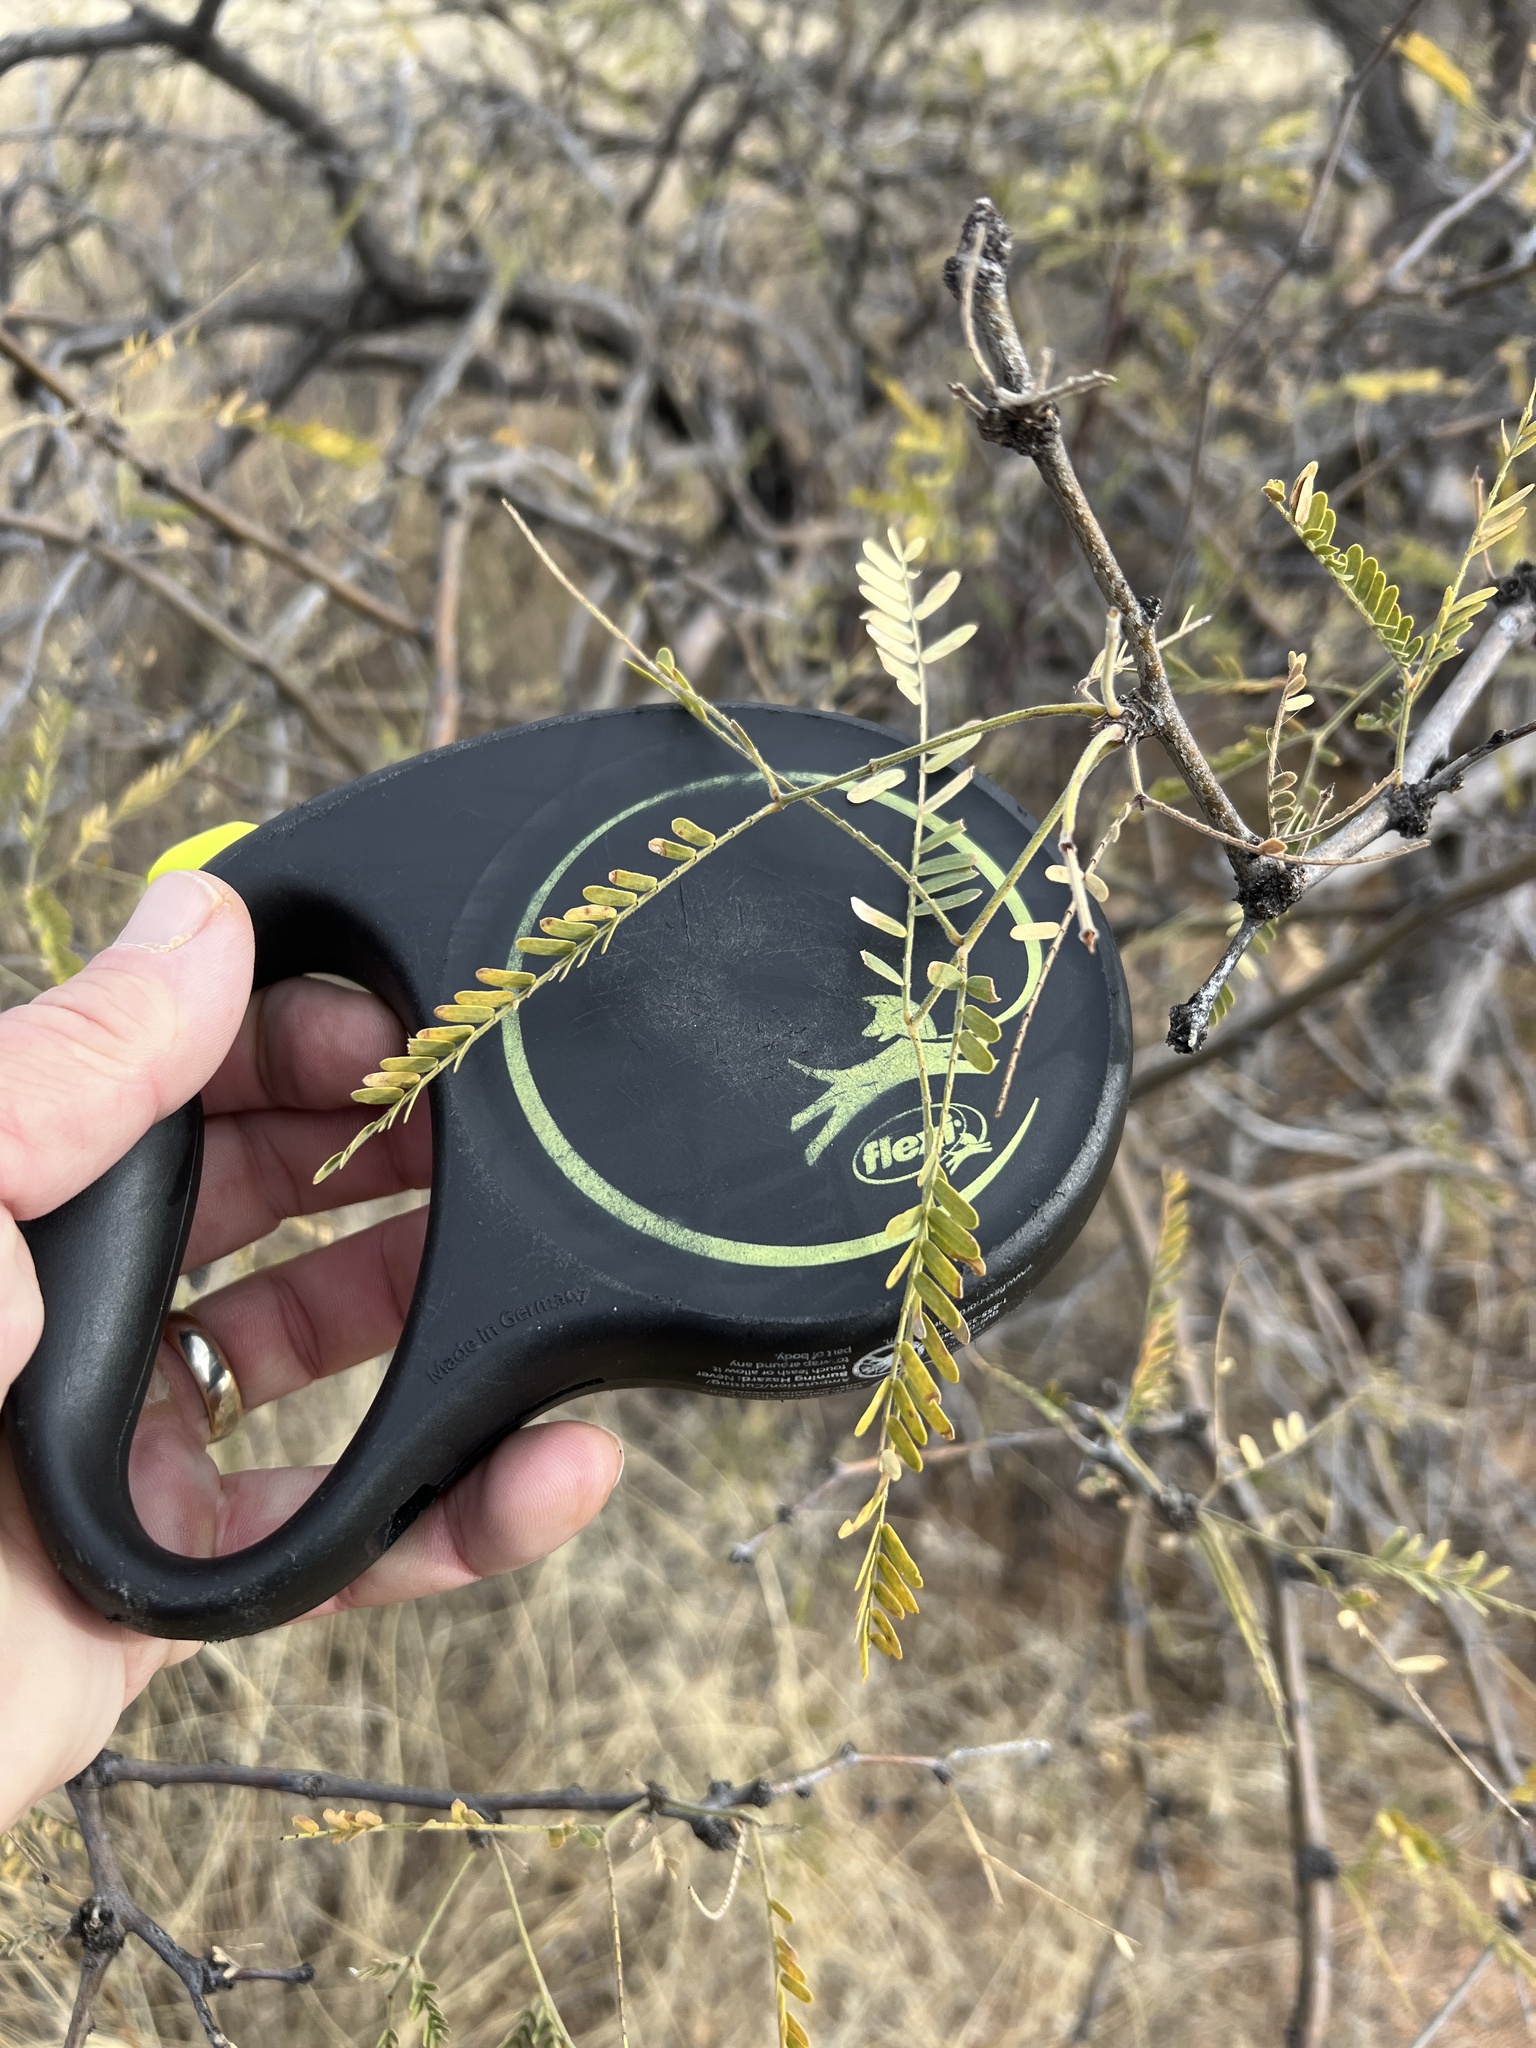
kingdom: Plantae
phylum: Tracheophyta
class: Magnoliopsida
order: Fabales
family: Fabaceae
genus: Prosopis
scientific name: Prosopis velutina
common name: Velvet mesquite
